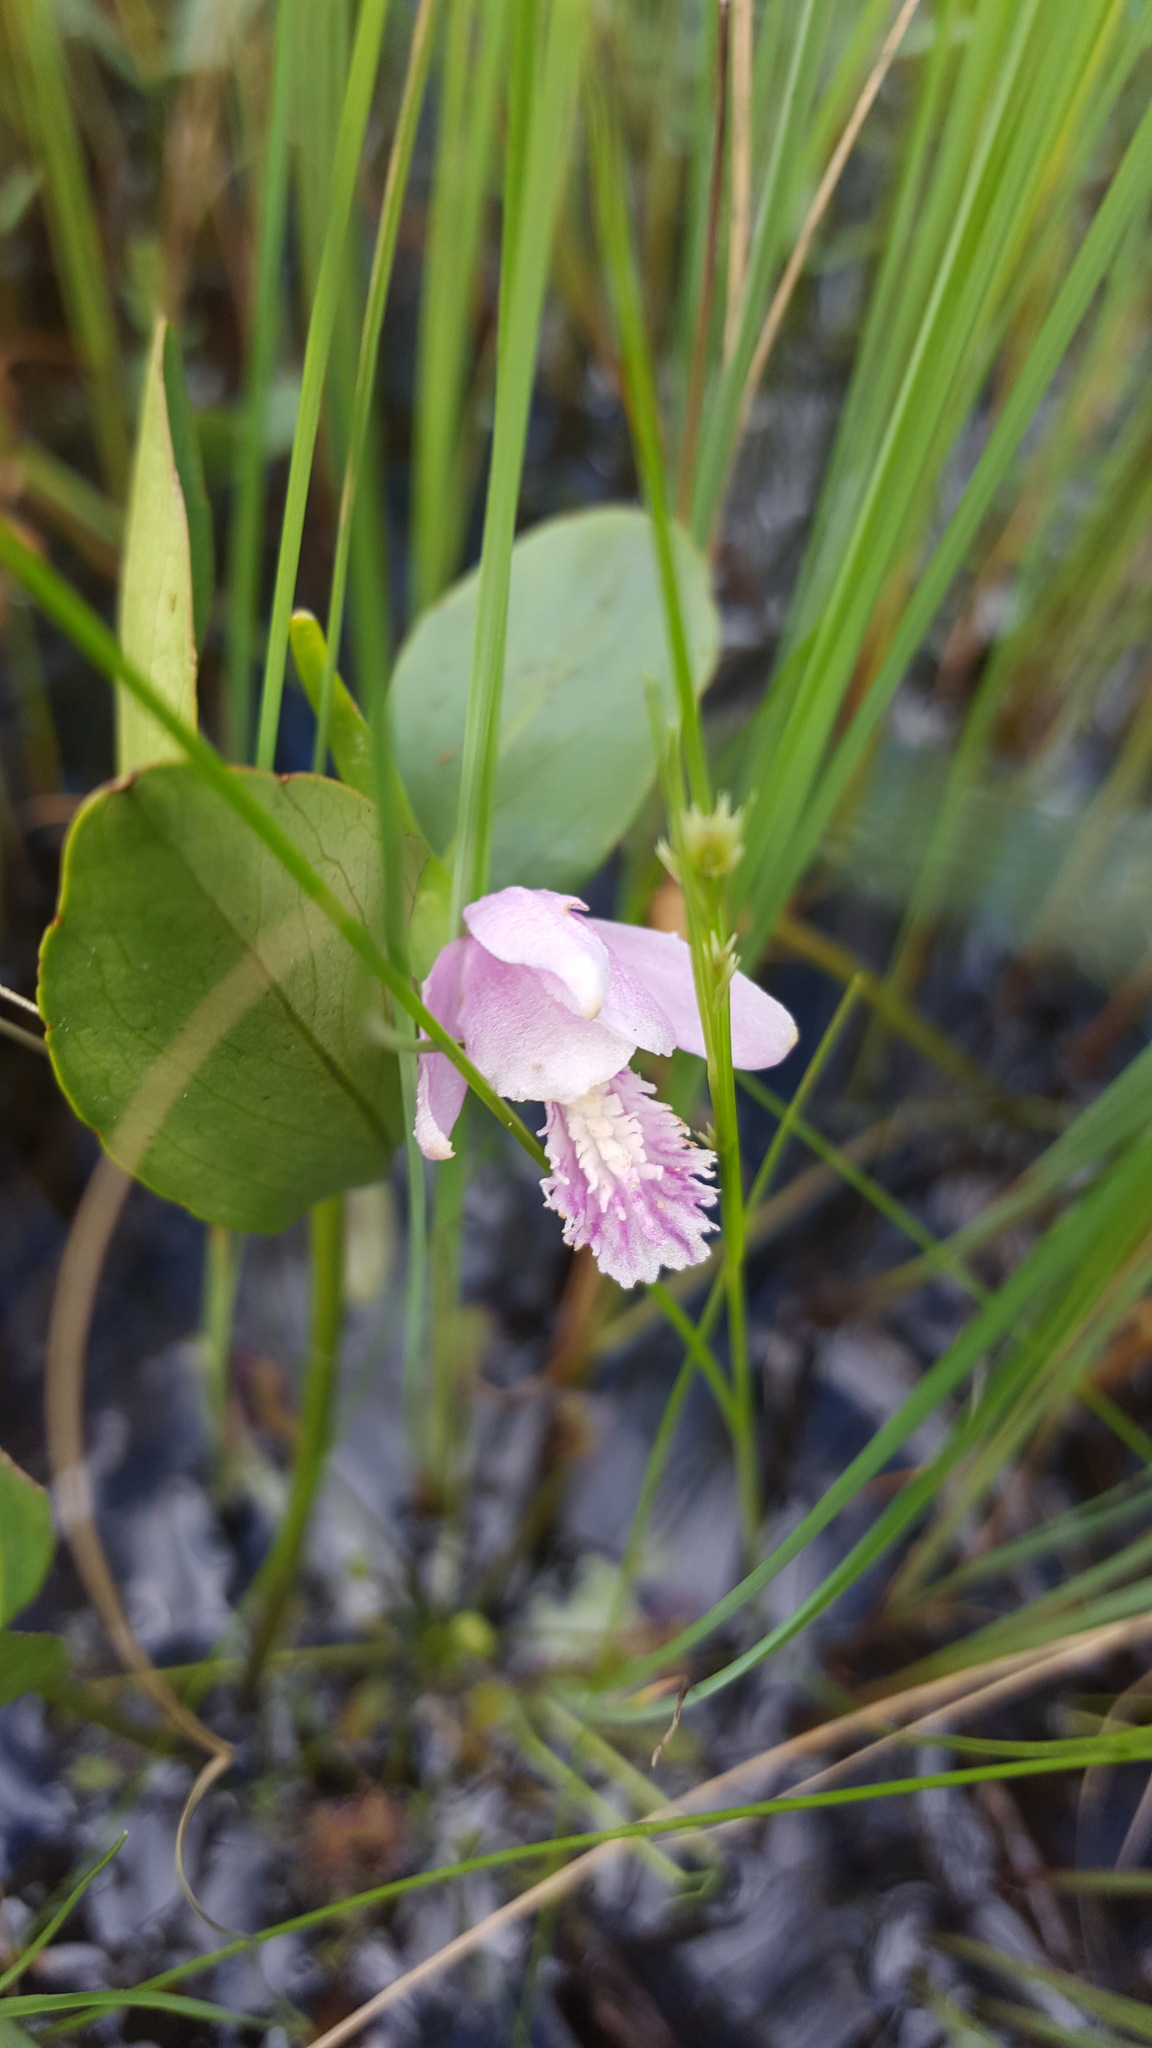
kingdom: Plantae
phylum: Tracheophyta
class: Liliopsida
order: Asparagales
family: Orchidaceae
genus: Pogonia
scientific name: Pogonia ophioglossoides
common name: Rose pogonia
